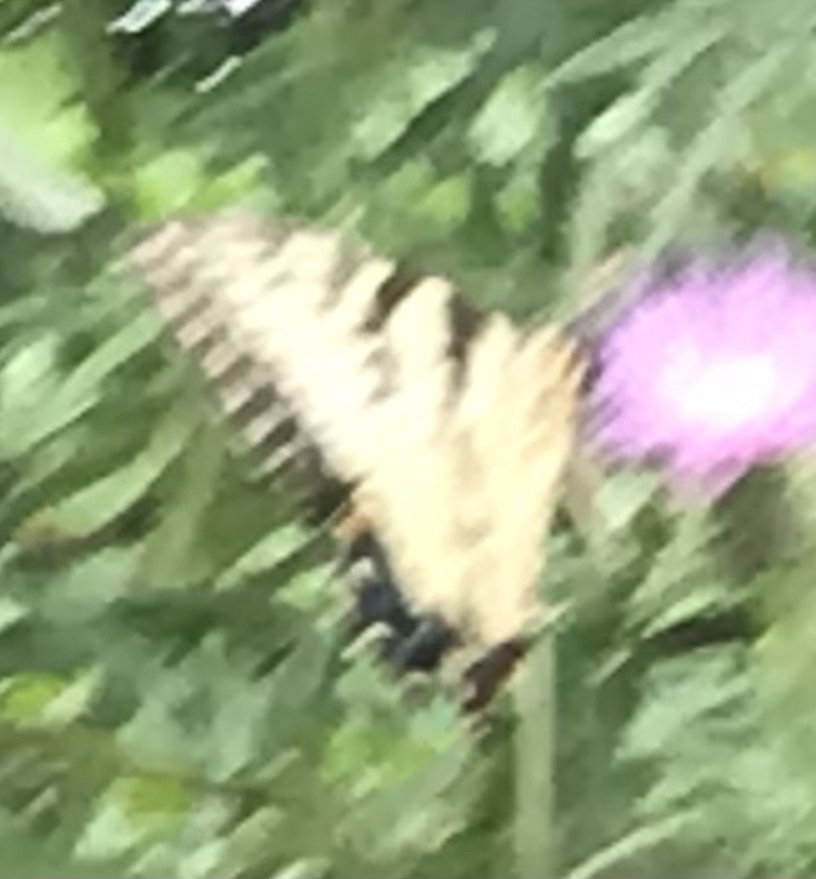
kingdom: Animalia
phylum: Arthropoda
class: Insecta
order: Lepidoptera
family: Papilionidae
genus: Papilio
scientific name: Papilio glaucus
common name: Tiger swallowtail
